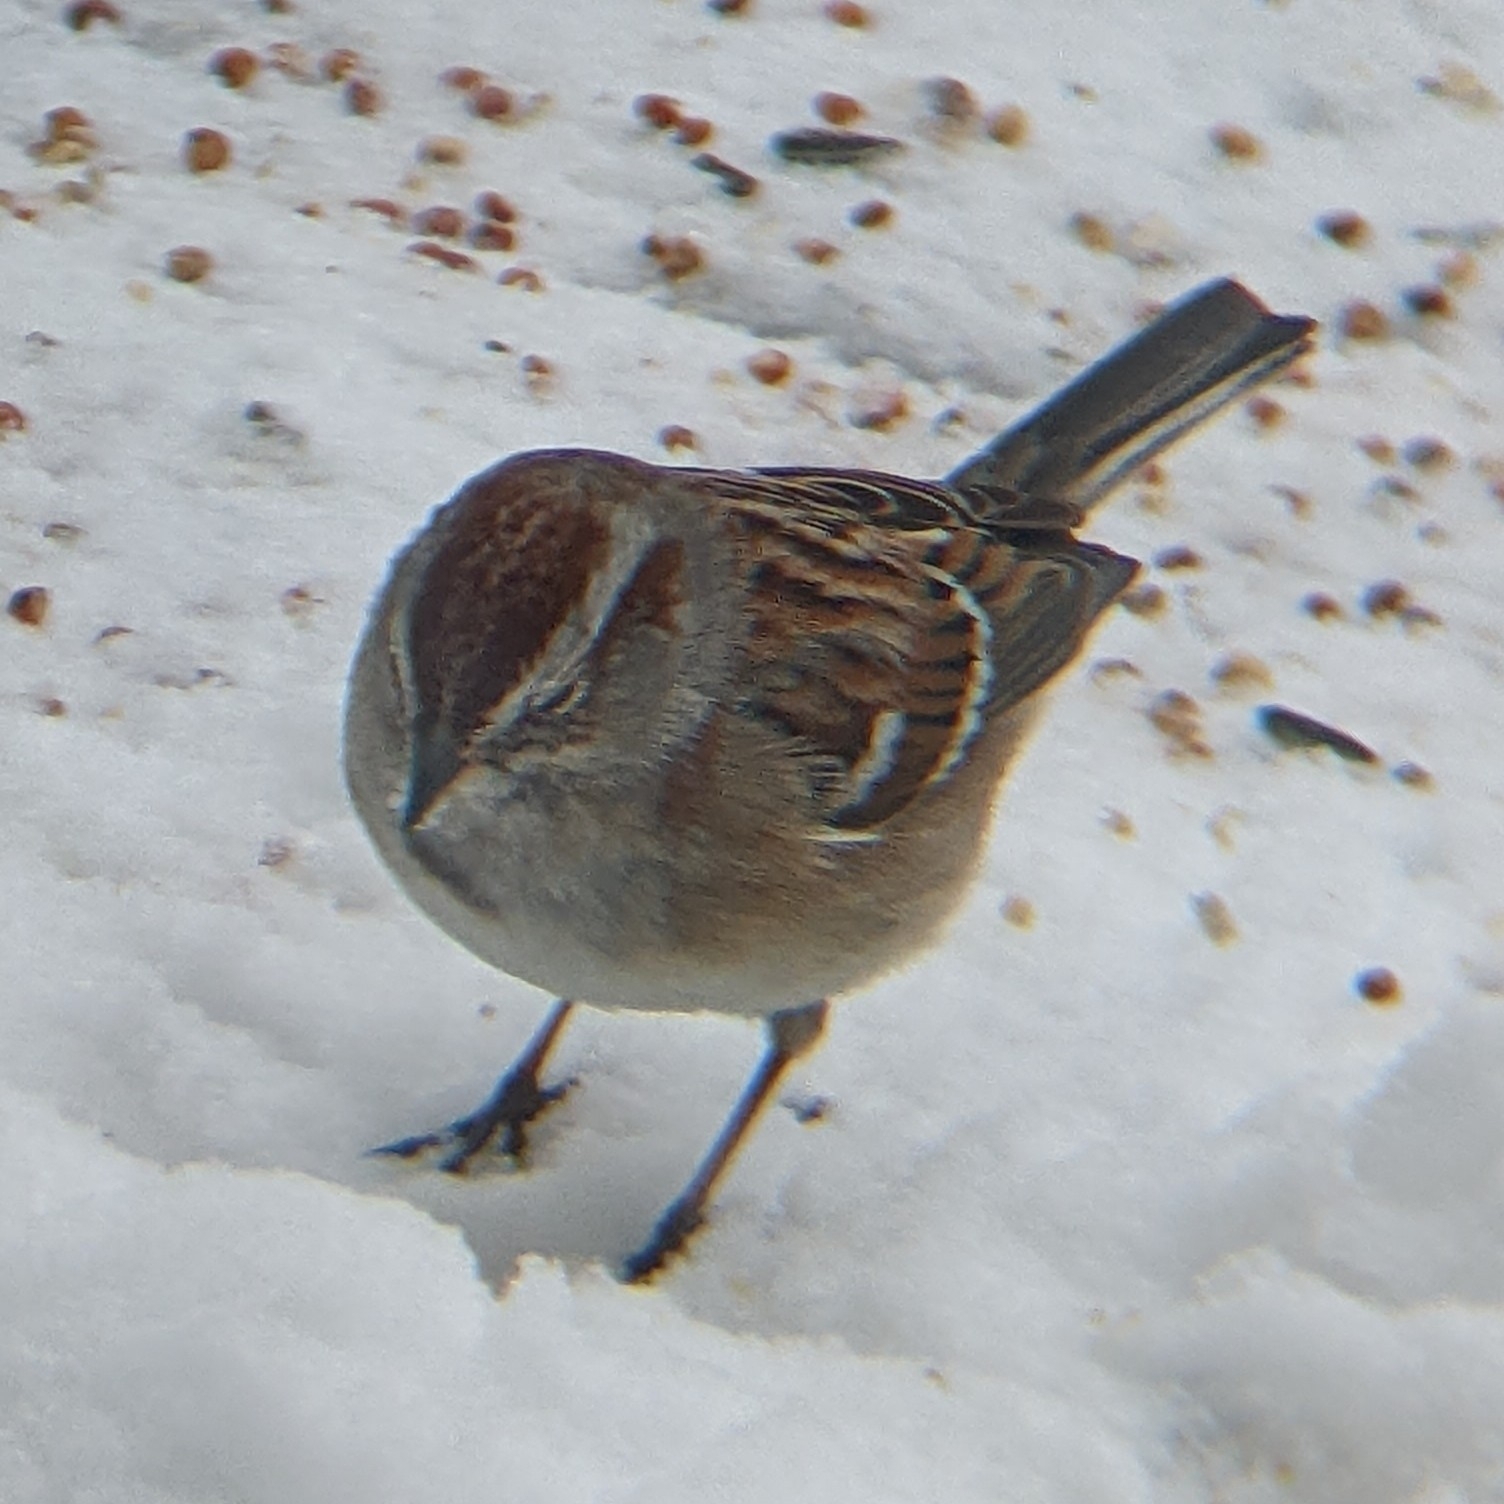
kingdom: Animalia
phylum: Chordata
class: Aves
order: Passeriformes
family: Passerellidae
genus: Spizelloides
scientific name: Spizelloides arborea
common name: American tree sparrow
